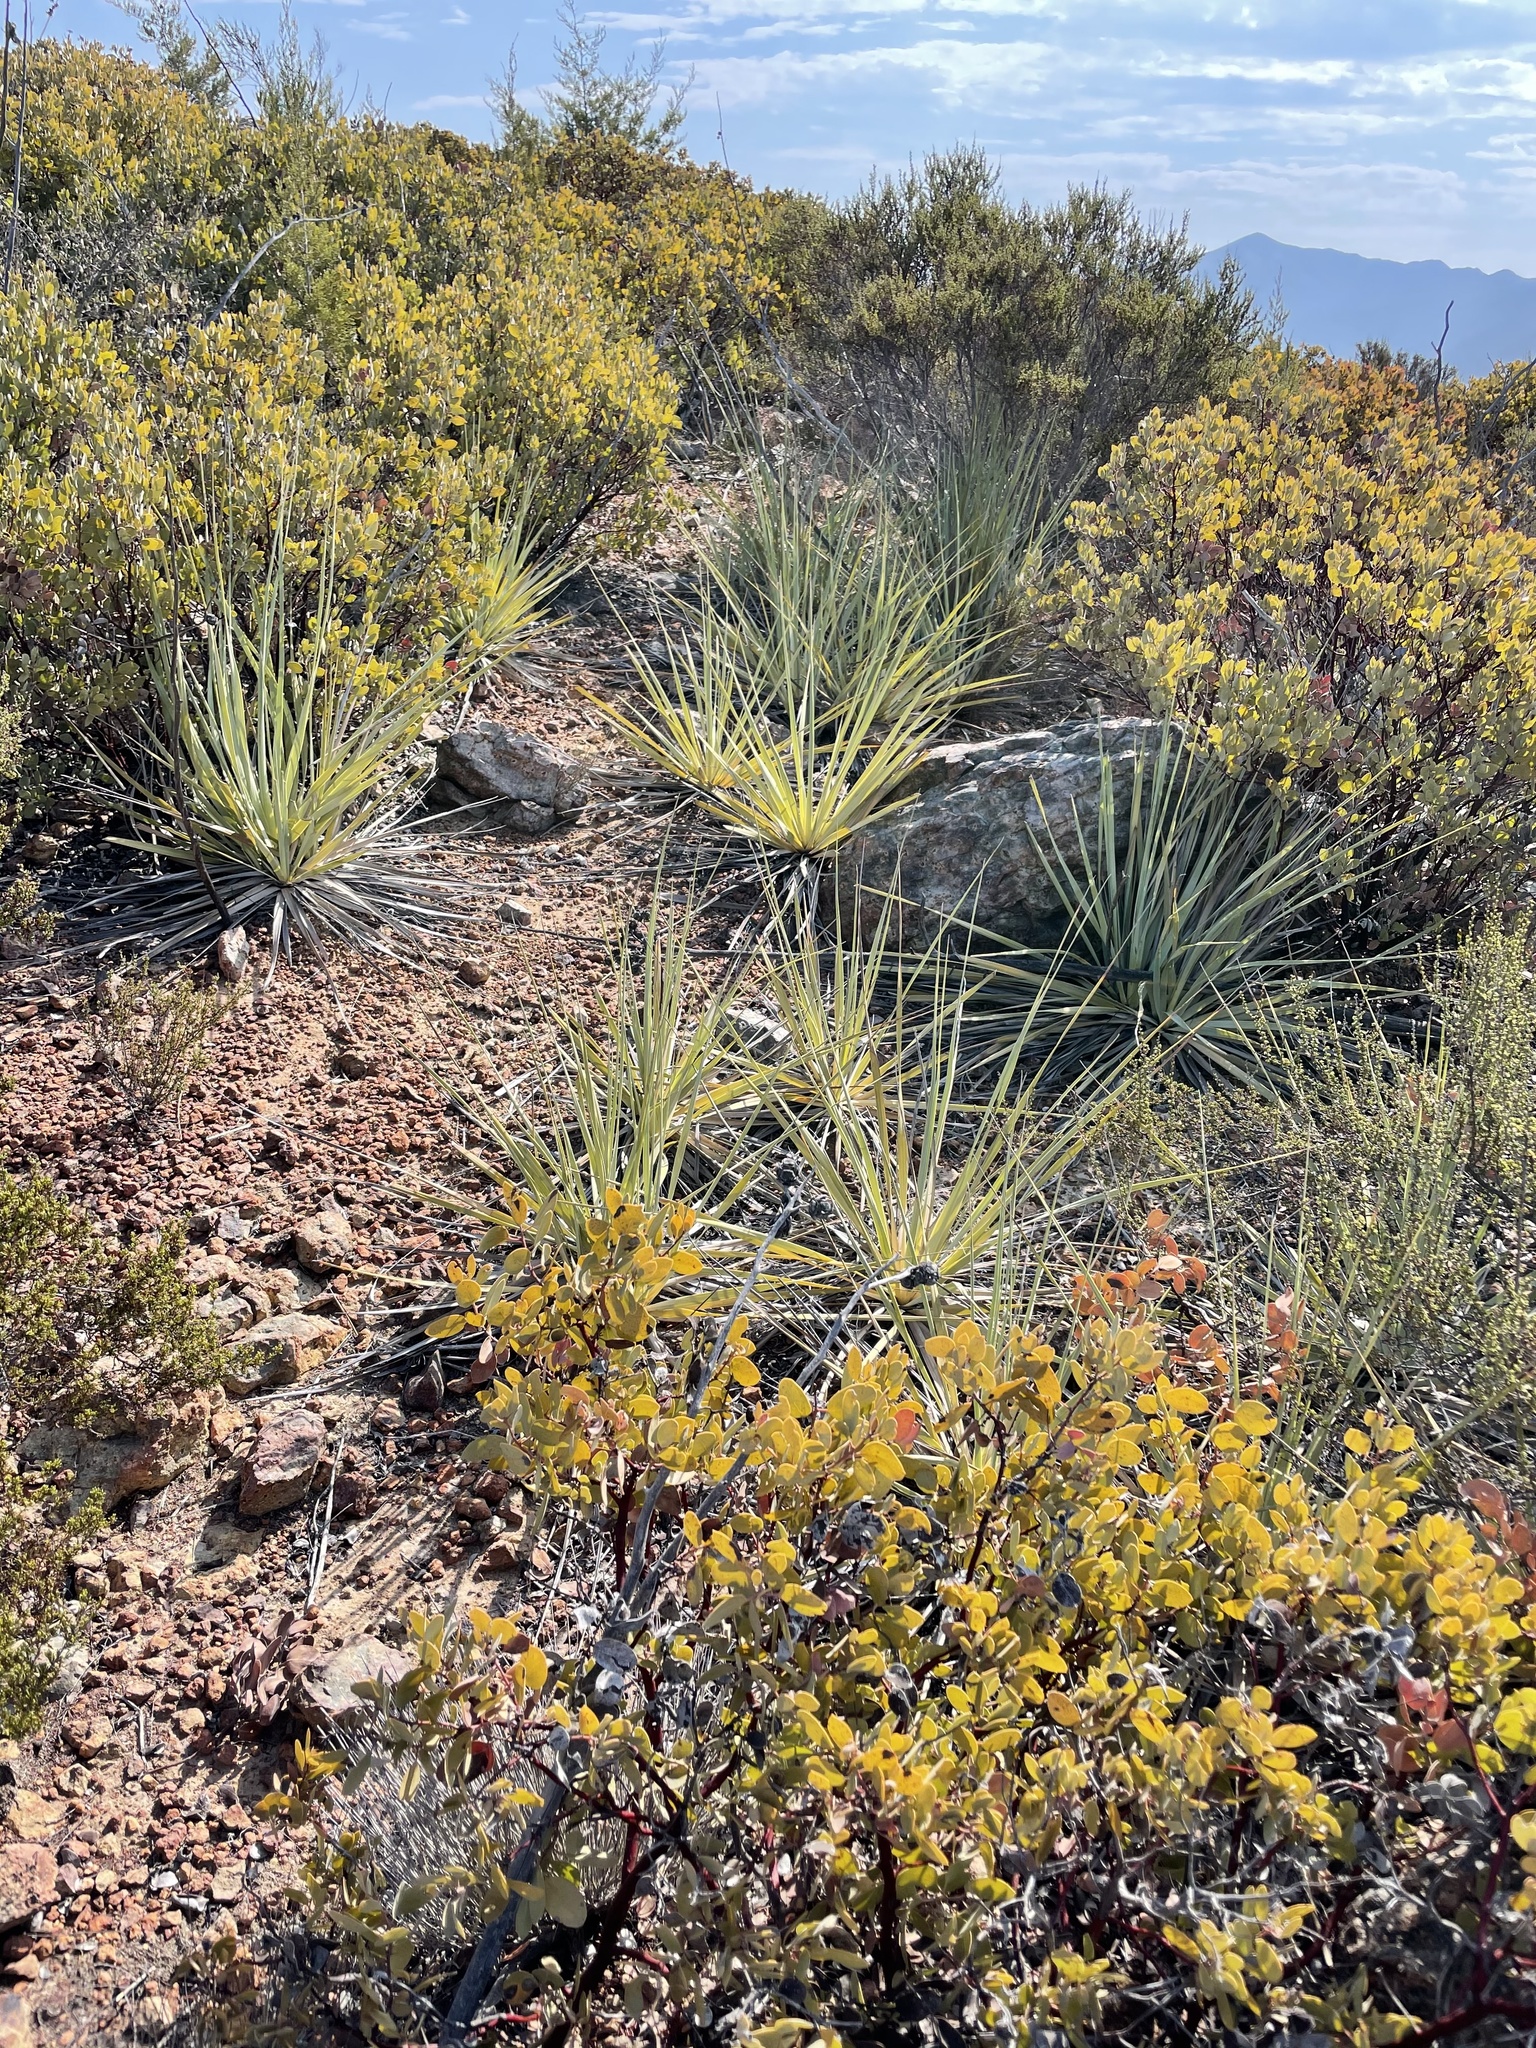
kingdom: Plantae
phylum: Tracheophyta
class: Liliopsida
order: Asparagales
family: Asparagaceae
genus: Nolina
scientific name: Nolina interrata
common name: Dehesa bear-grass
